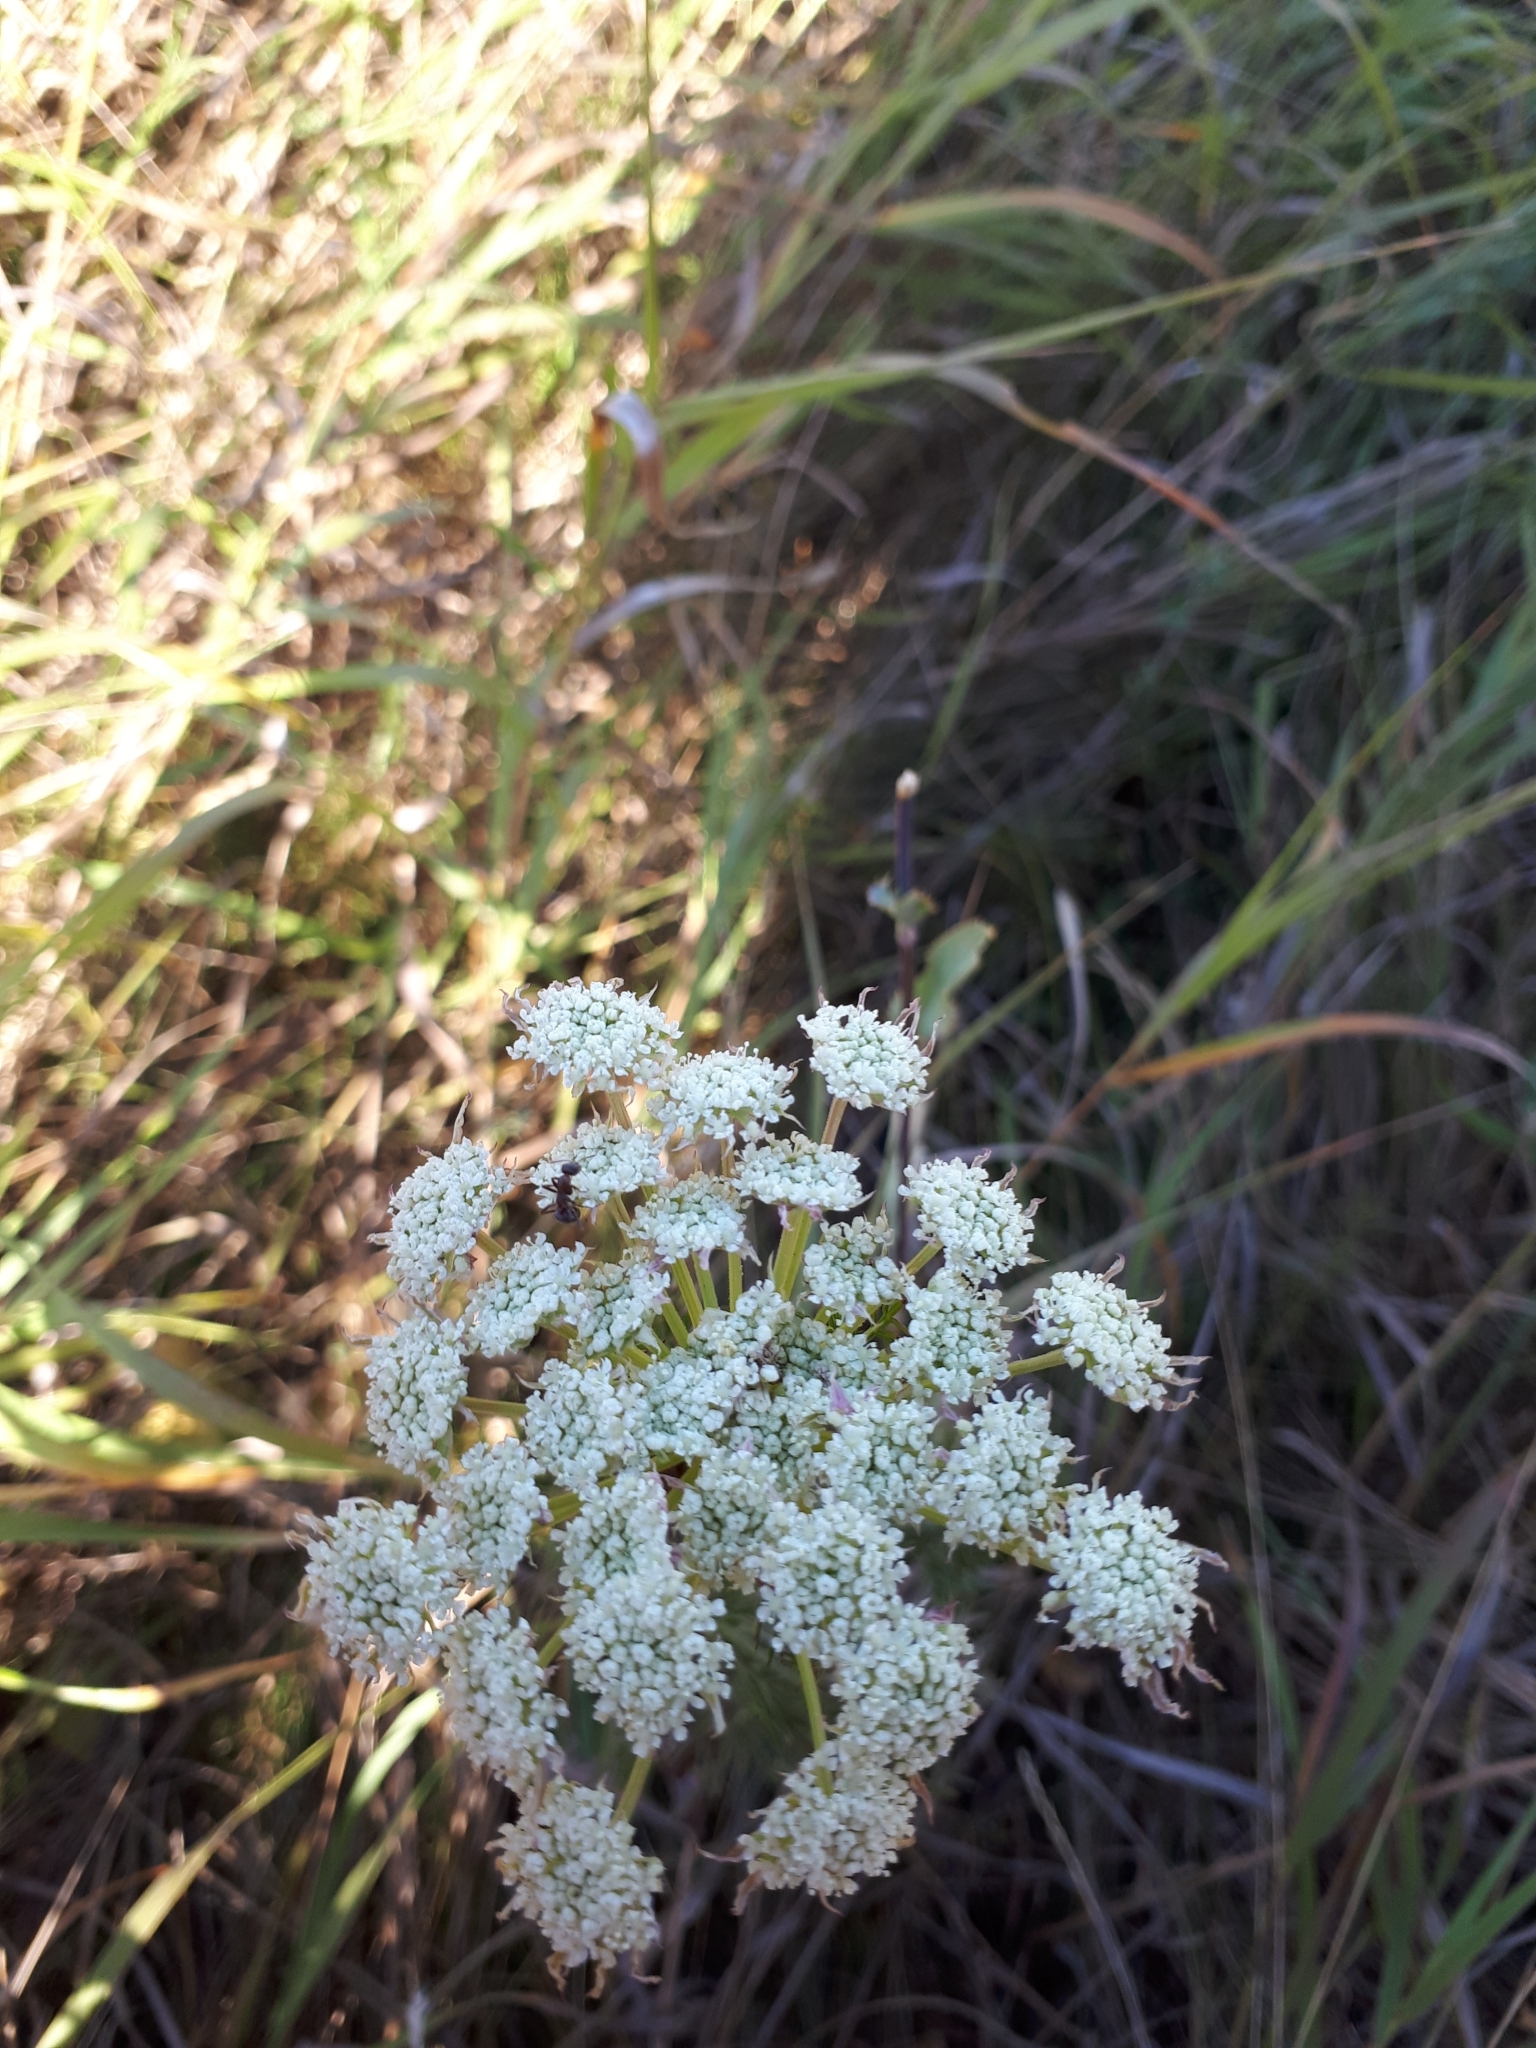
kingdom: Plantae
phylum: Tracheophyta
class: Magnoliopsida
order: Apiales
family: Apiaceae
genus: Seseli
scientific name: Seseli annuum
